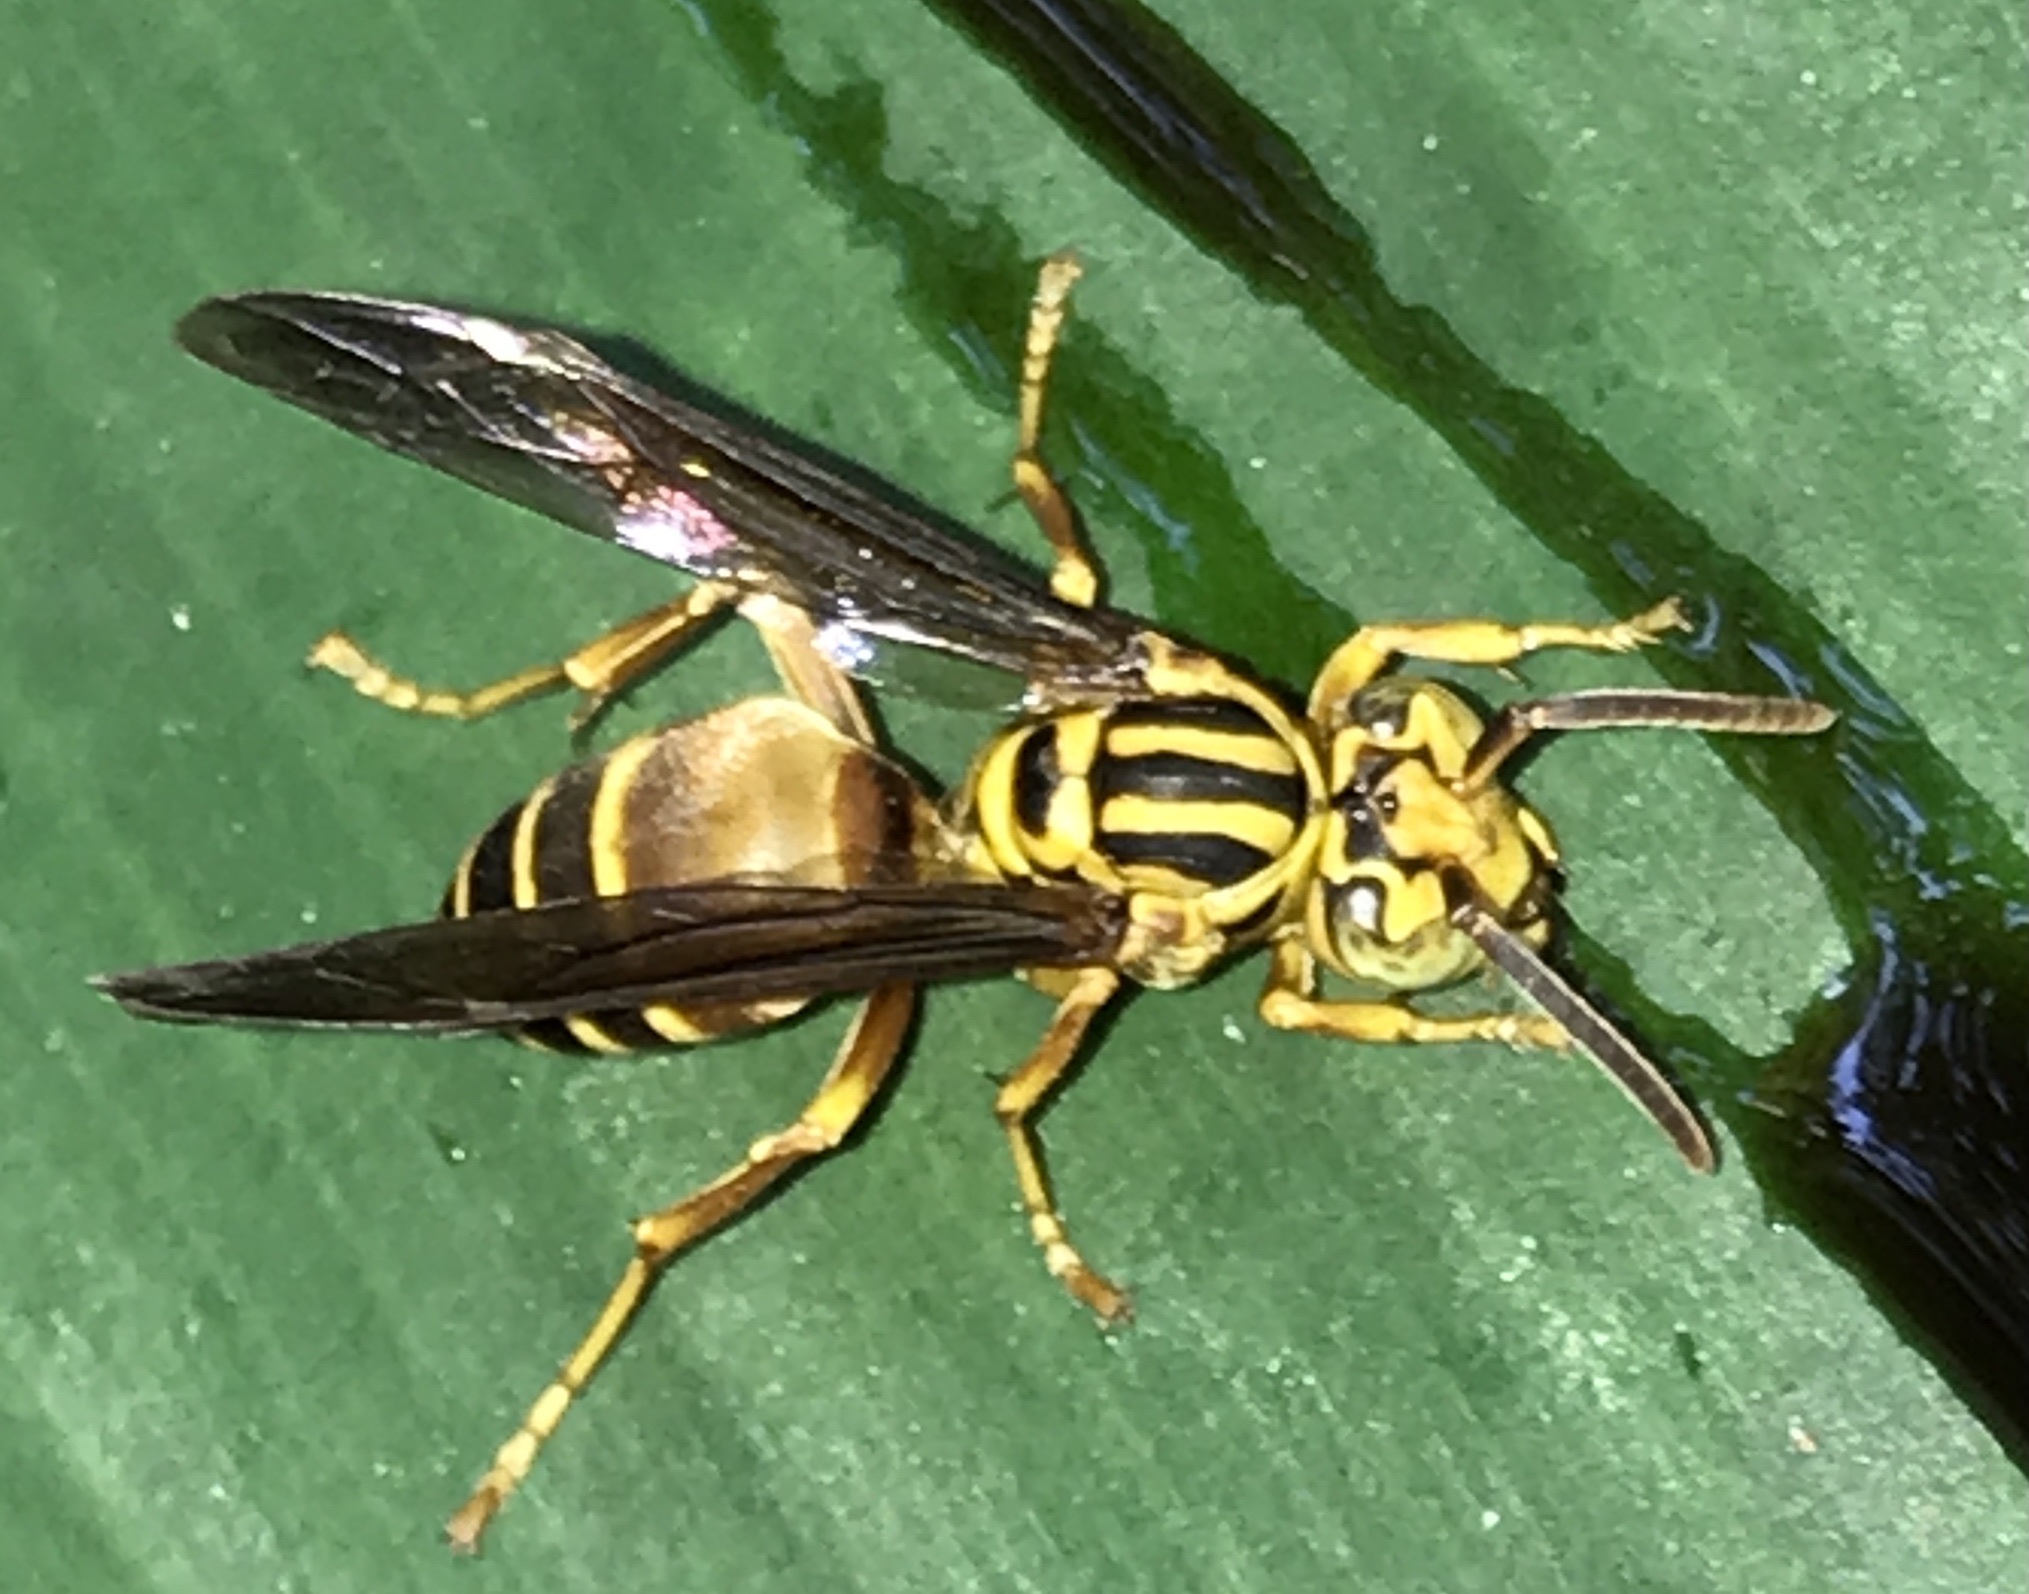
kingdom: Animalia
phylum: Arthropoda
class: Insecta
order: Hymenoptera
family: Vespidae
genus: Parachartergus
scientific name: Parachartergus vespiceps
